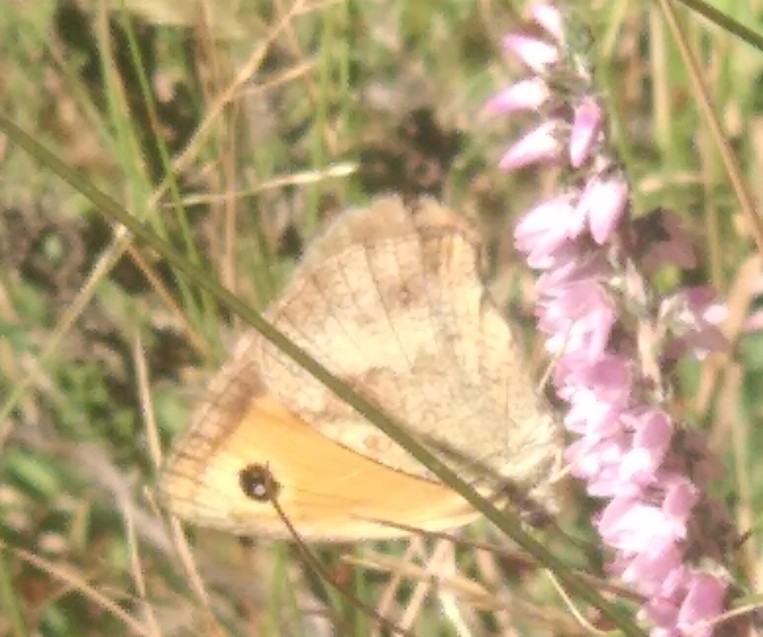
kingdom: Animalia
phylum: Arthropoda
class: Insecta
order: Lepidoptera
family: Nymphalidae
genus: Pyronia
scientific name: Pyronia tithonus
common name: Gatekeeper
